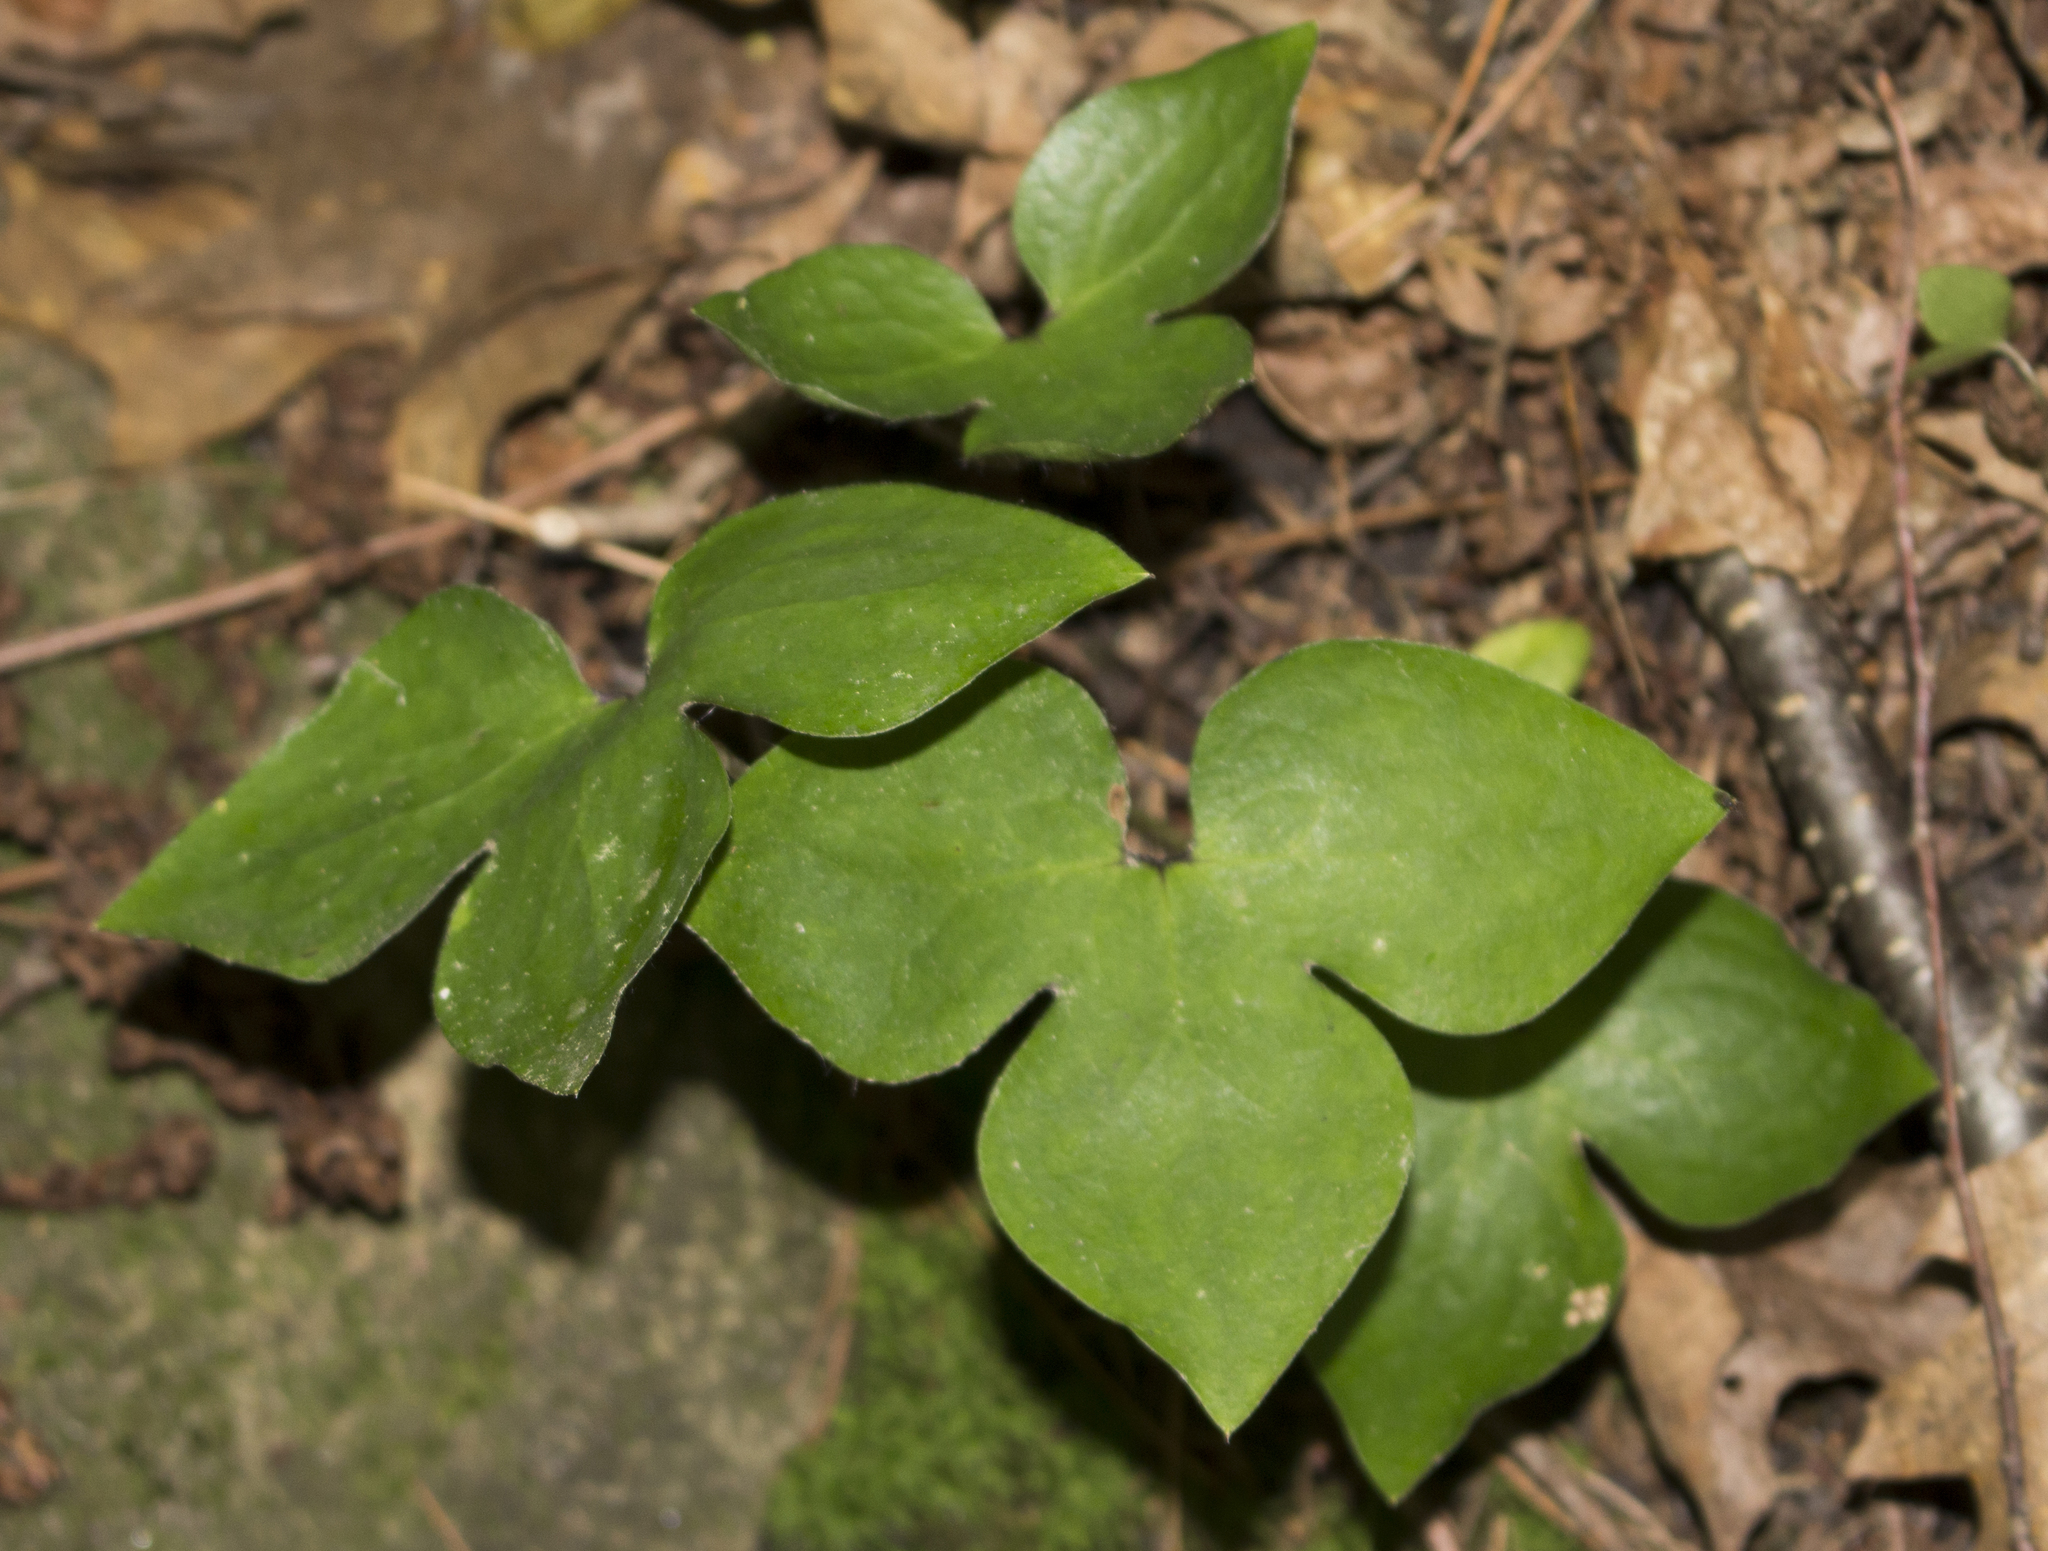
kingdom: Plantae
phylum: Tracheophyta
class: Magnoliopsida
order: Ranunculales
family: Ranunculaceae
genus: Hepatica
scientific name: Hepatica acutiloba
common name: Sharp-lobed hepatica
